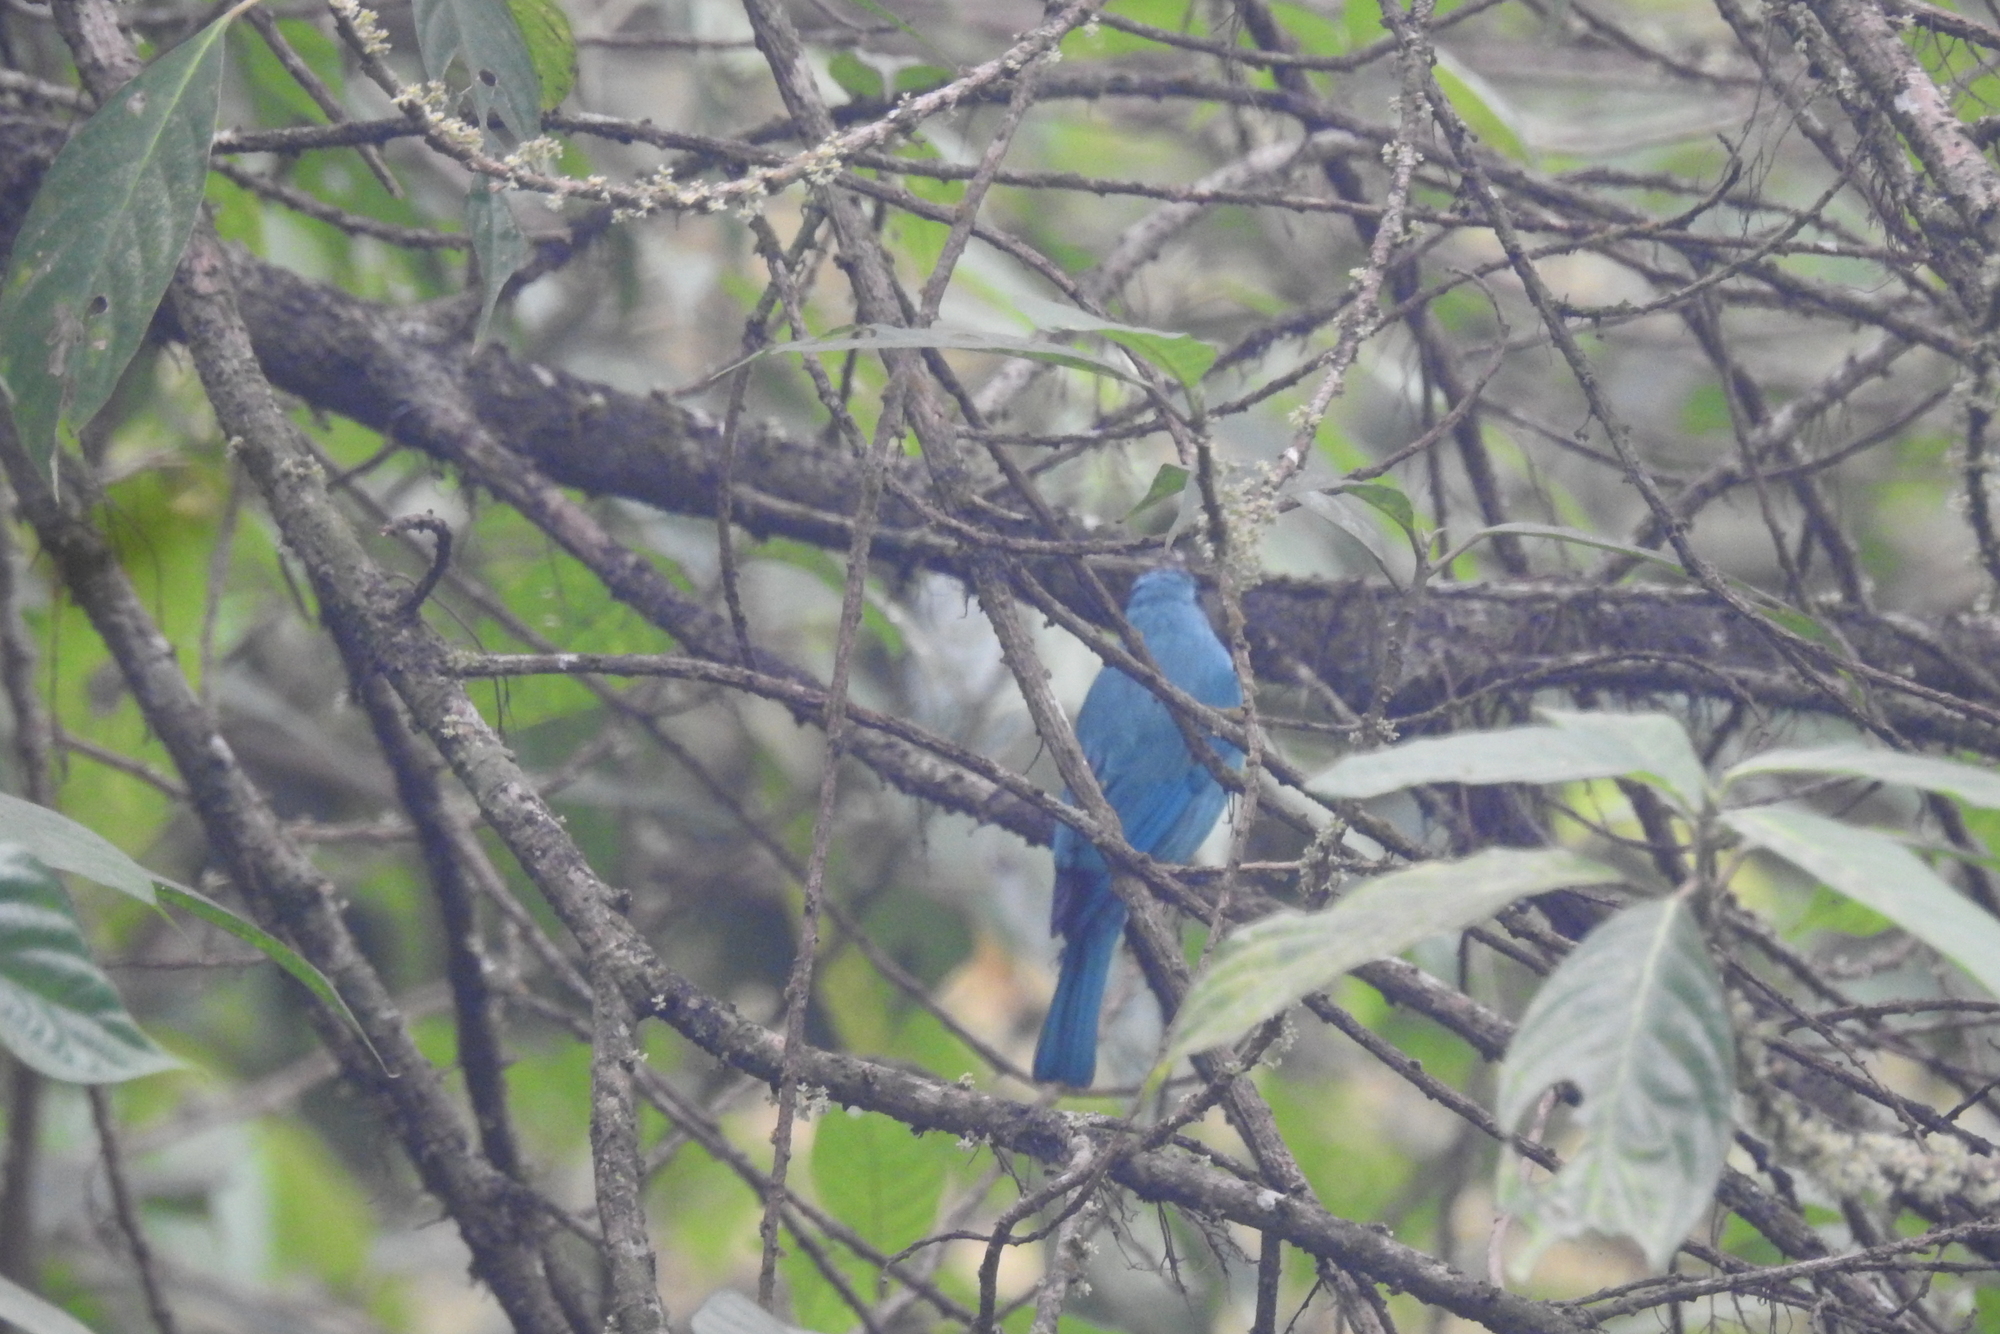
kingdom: Animalia
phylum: Chordata
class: Aves
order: Passeriformes
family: Muscicapidae
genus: Eumyias
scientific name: Eumyias thalassinus
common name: Verditer flycatcher
